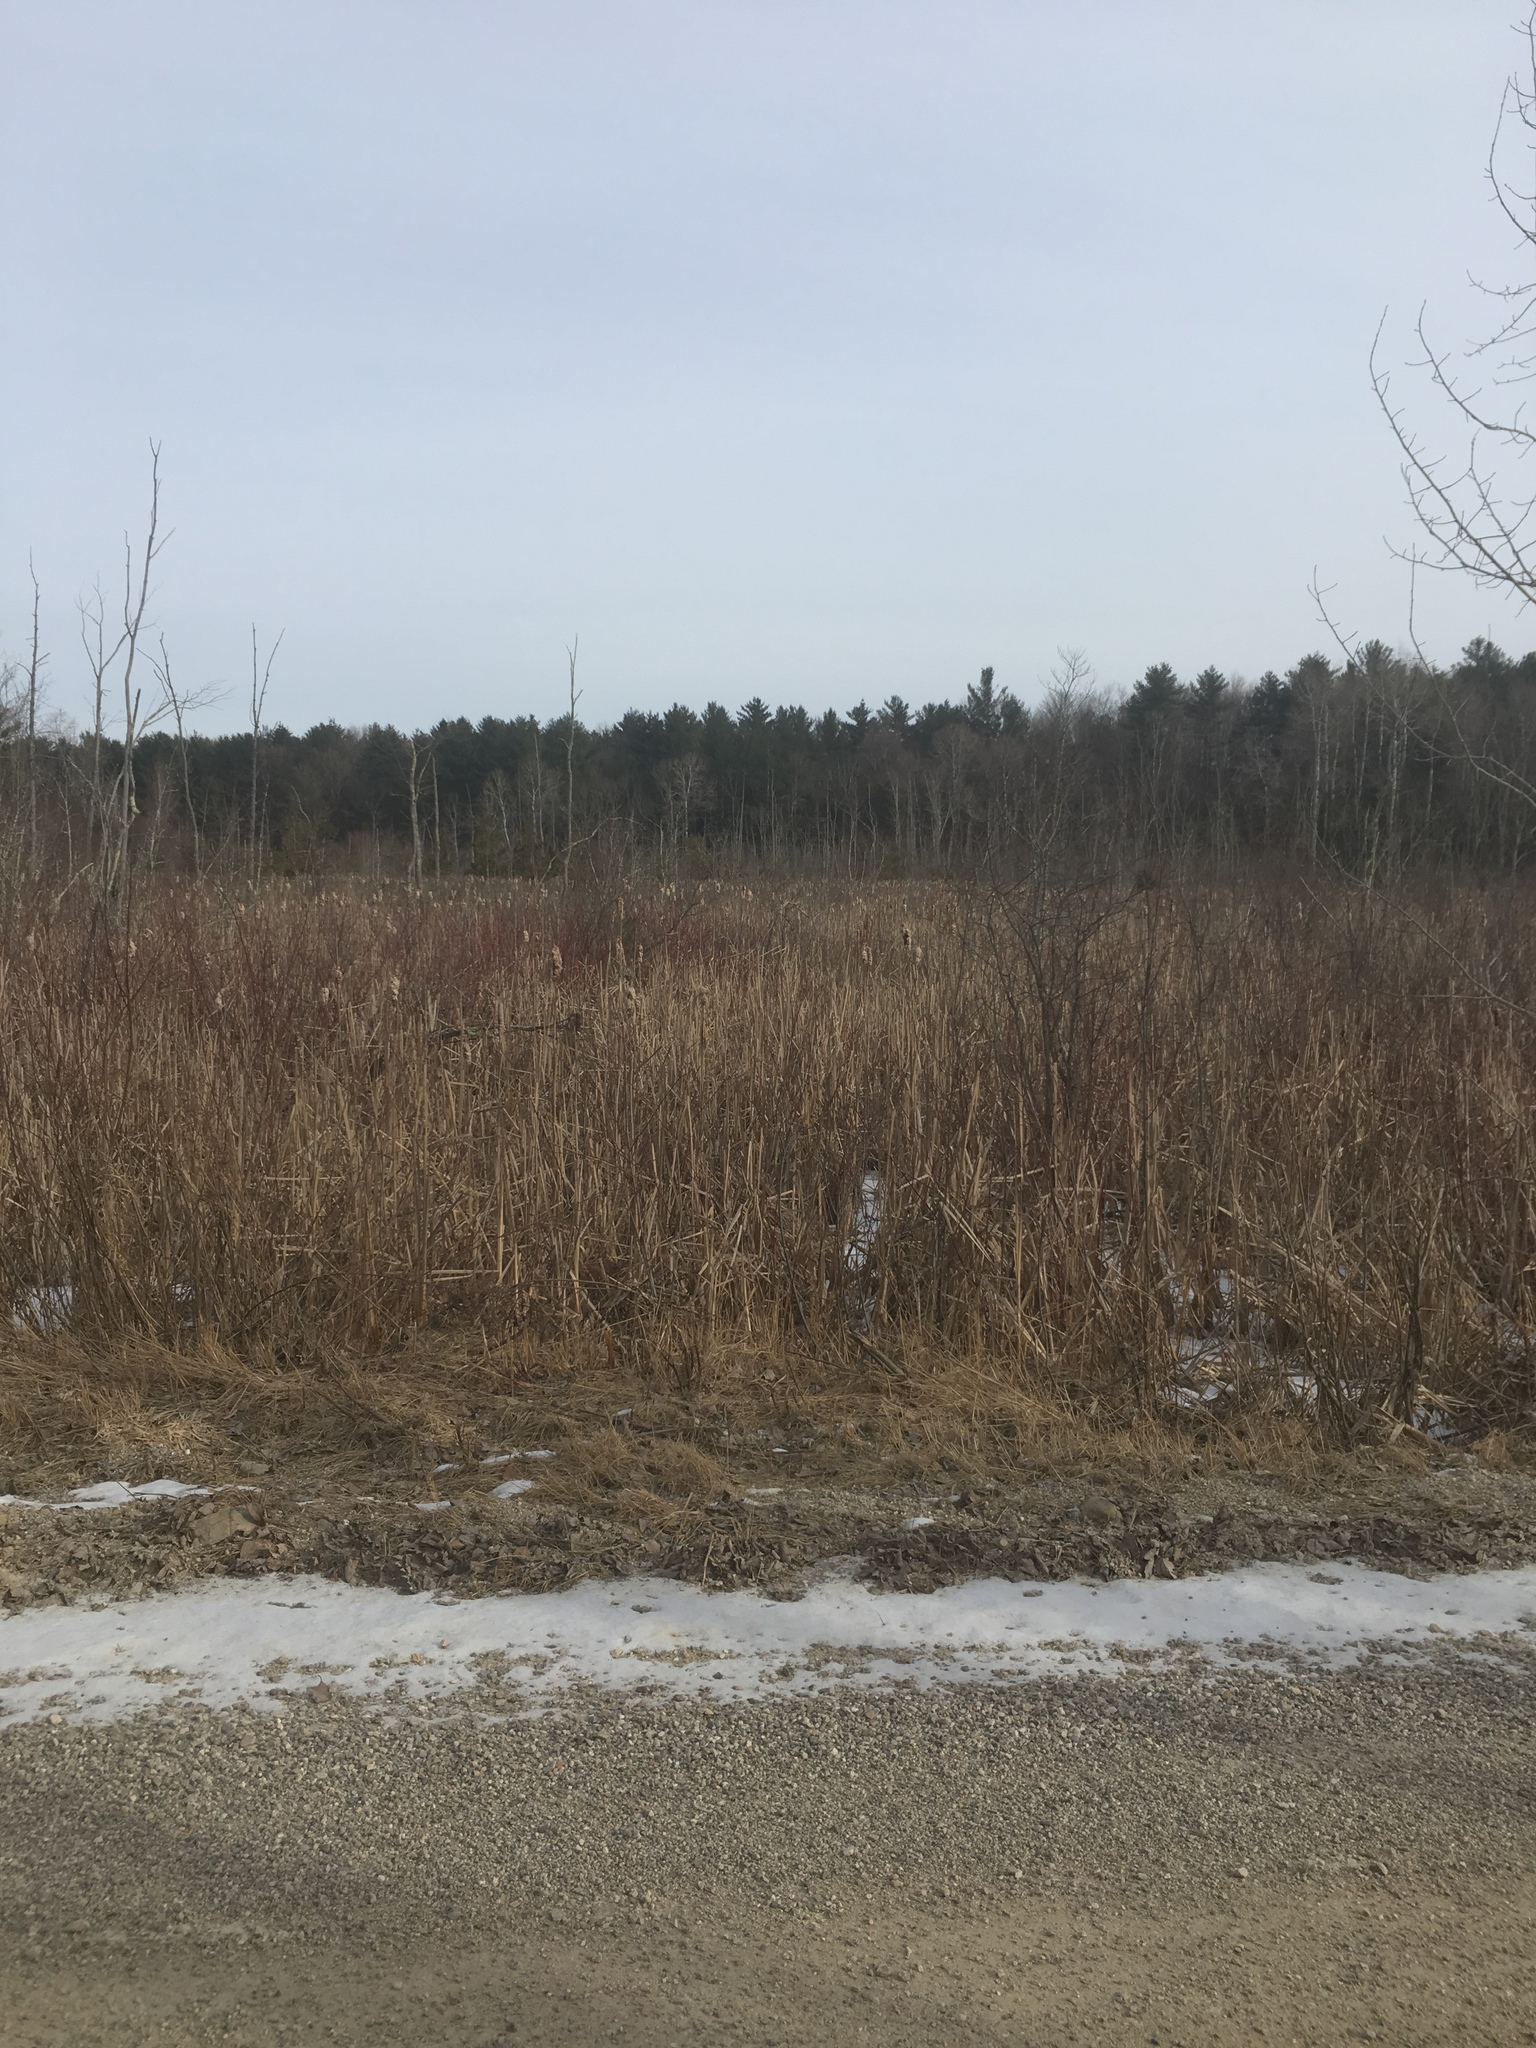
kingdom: Plantae
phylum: Tracheophyta
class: Liliopsida
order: Poales
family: Typhaceae
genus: Typha
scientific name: Typha
